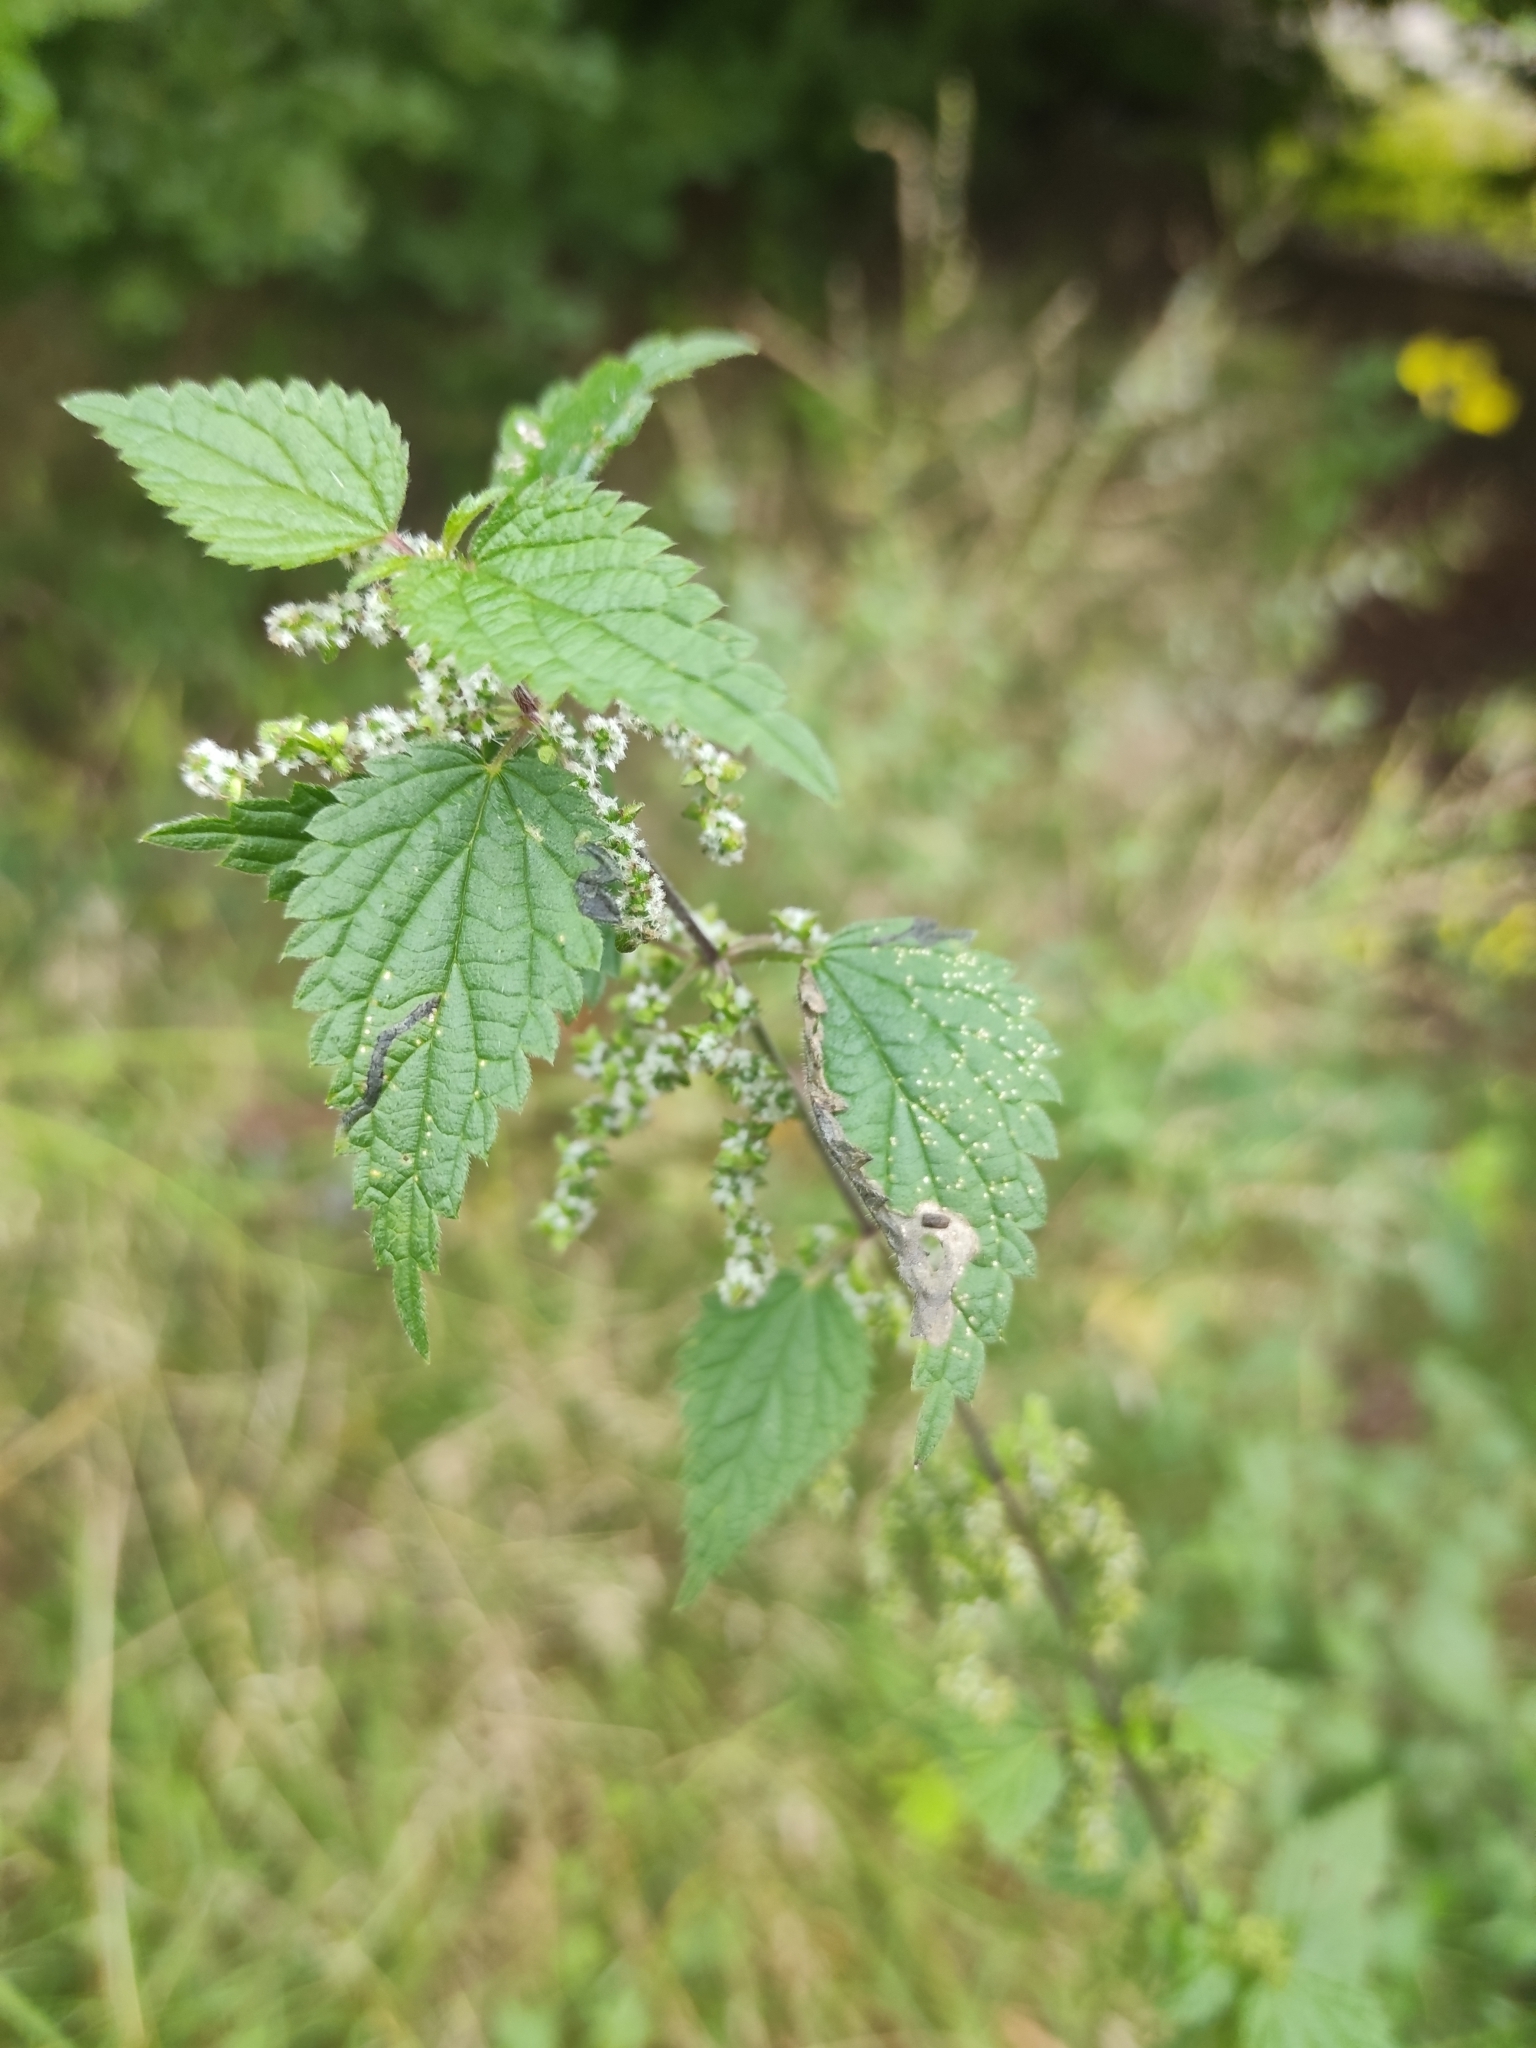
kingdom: Plantae
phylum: Tracheophyta
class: Magnoliopsida
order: Rosales
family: Urticaceae
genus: Urtica
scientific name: Urtica dioica
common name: Common nettle
